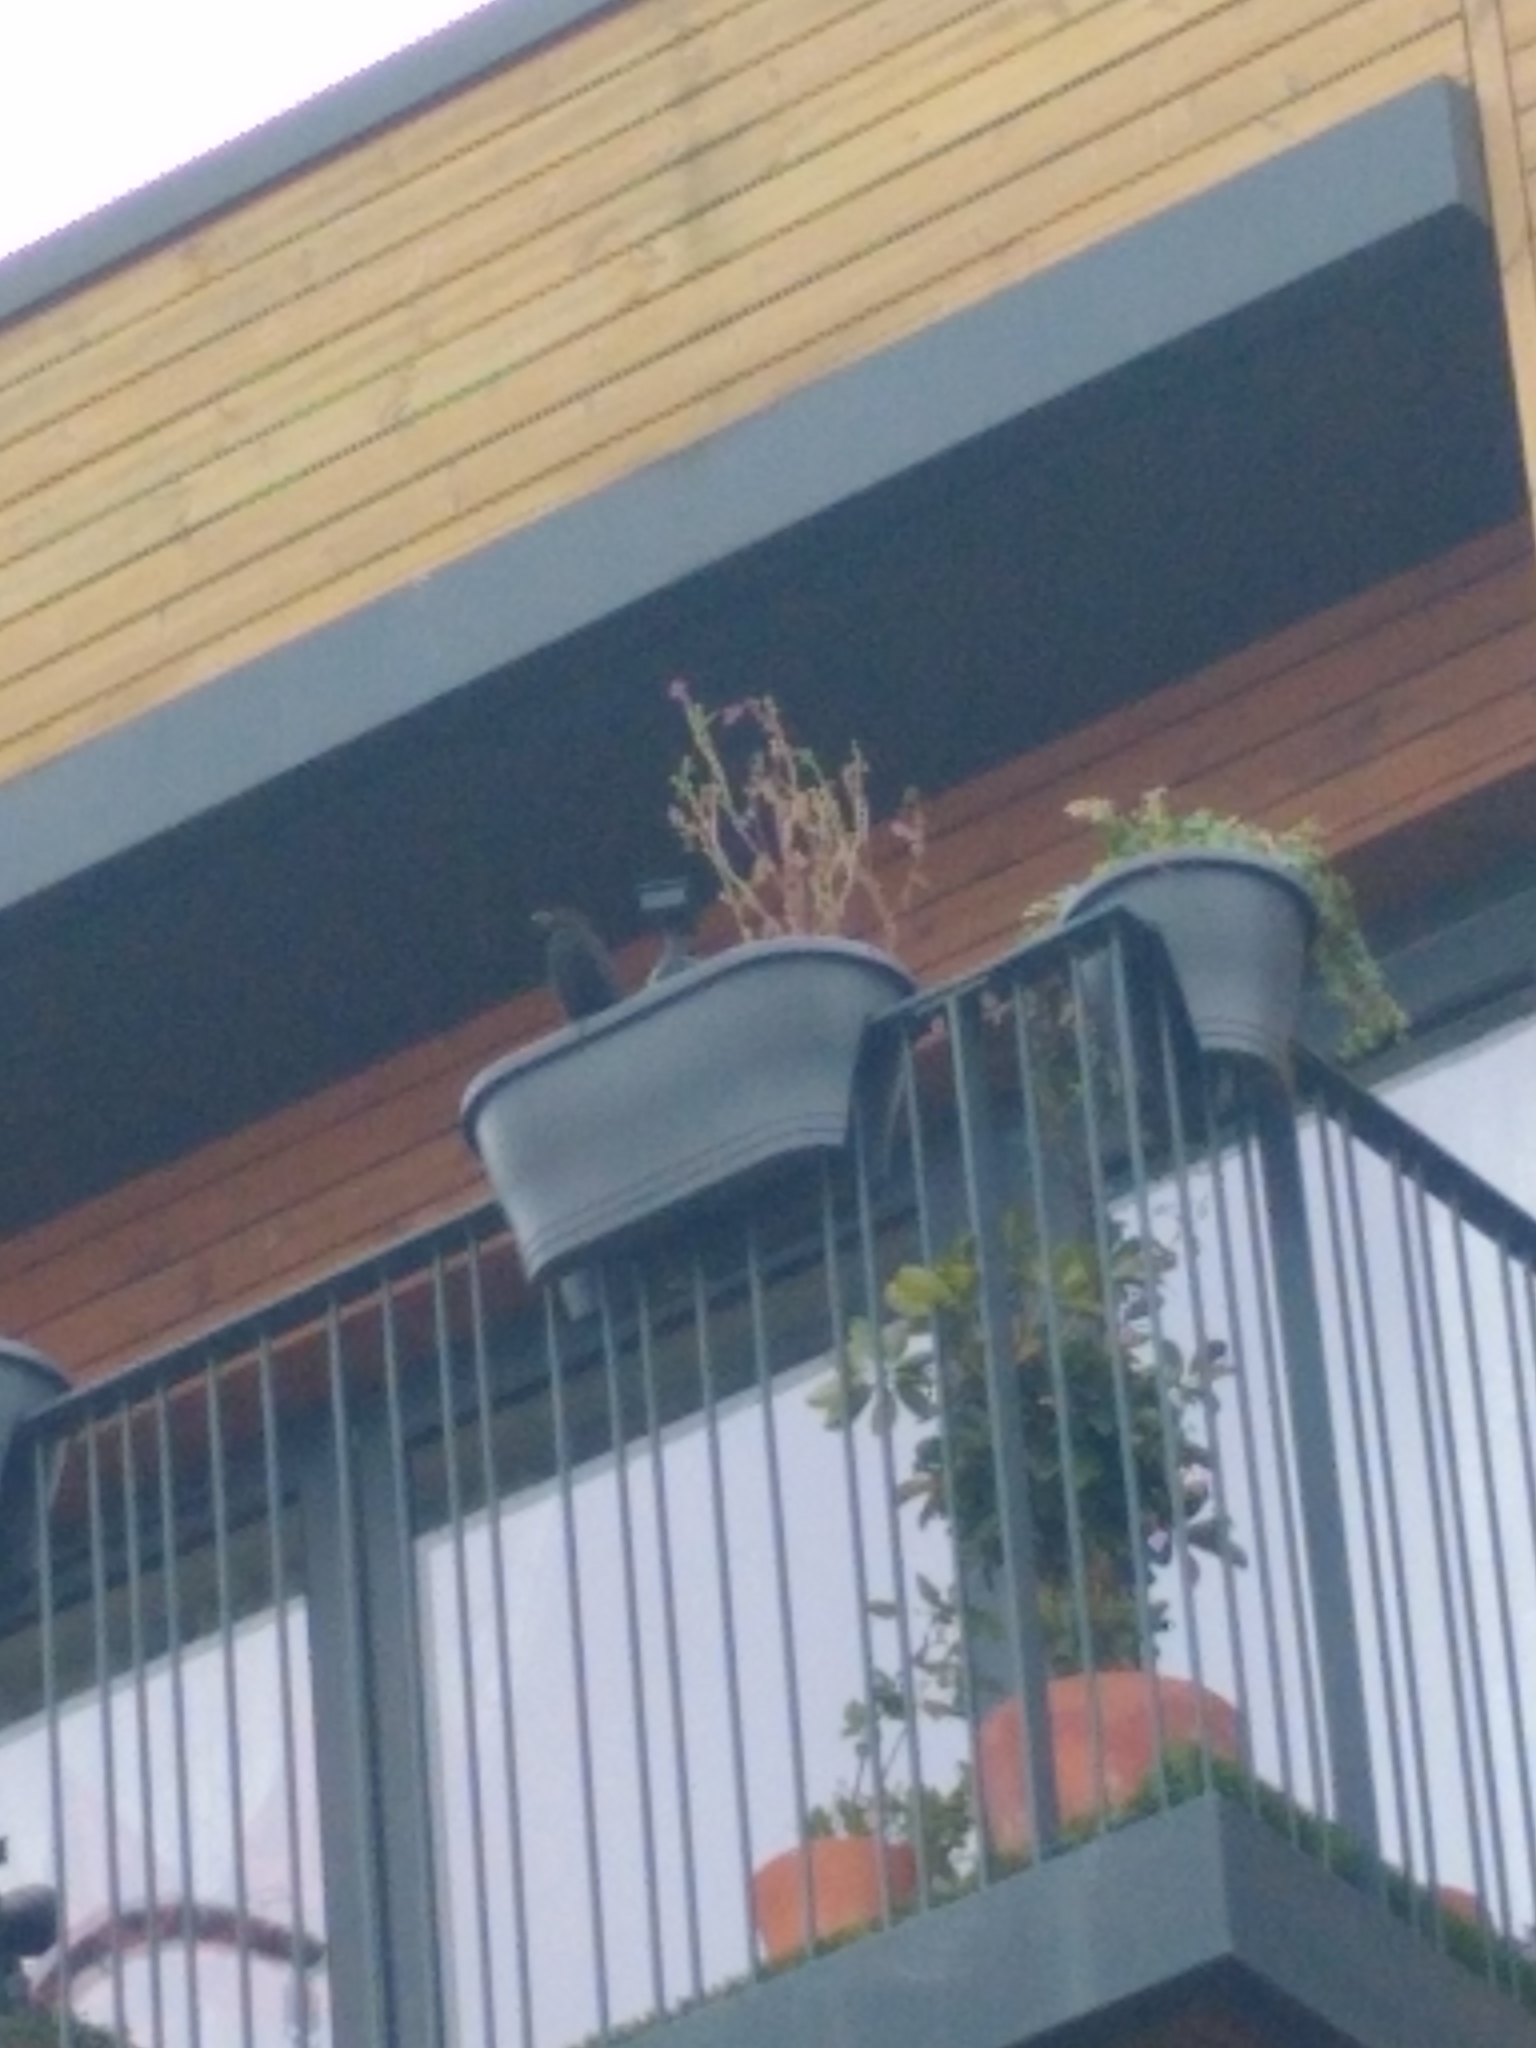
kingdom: Animalia
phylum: Chordata
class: Aves
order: Passeriformes
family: Turdidae
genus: Turdus
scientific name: Turdus merula
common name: Common blackbird
